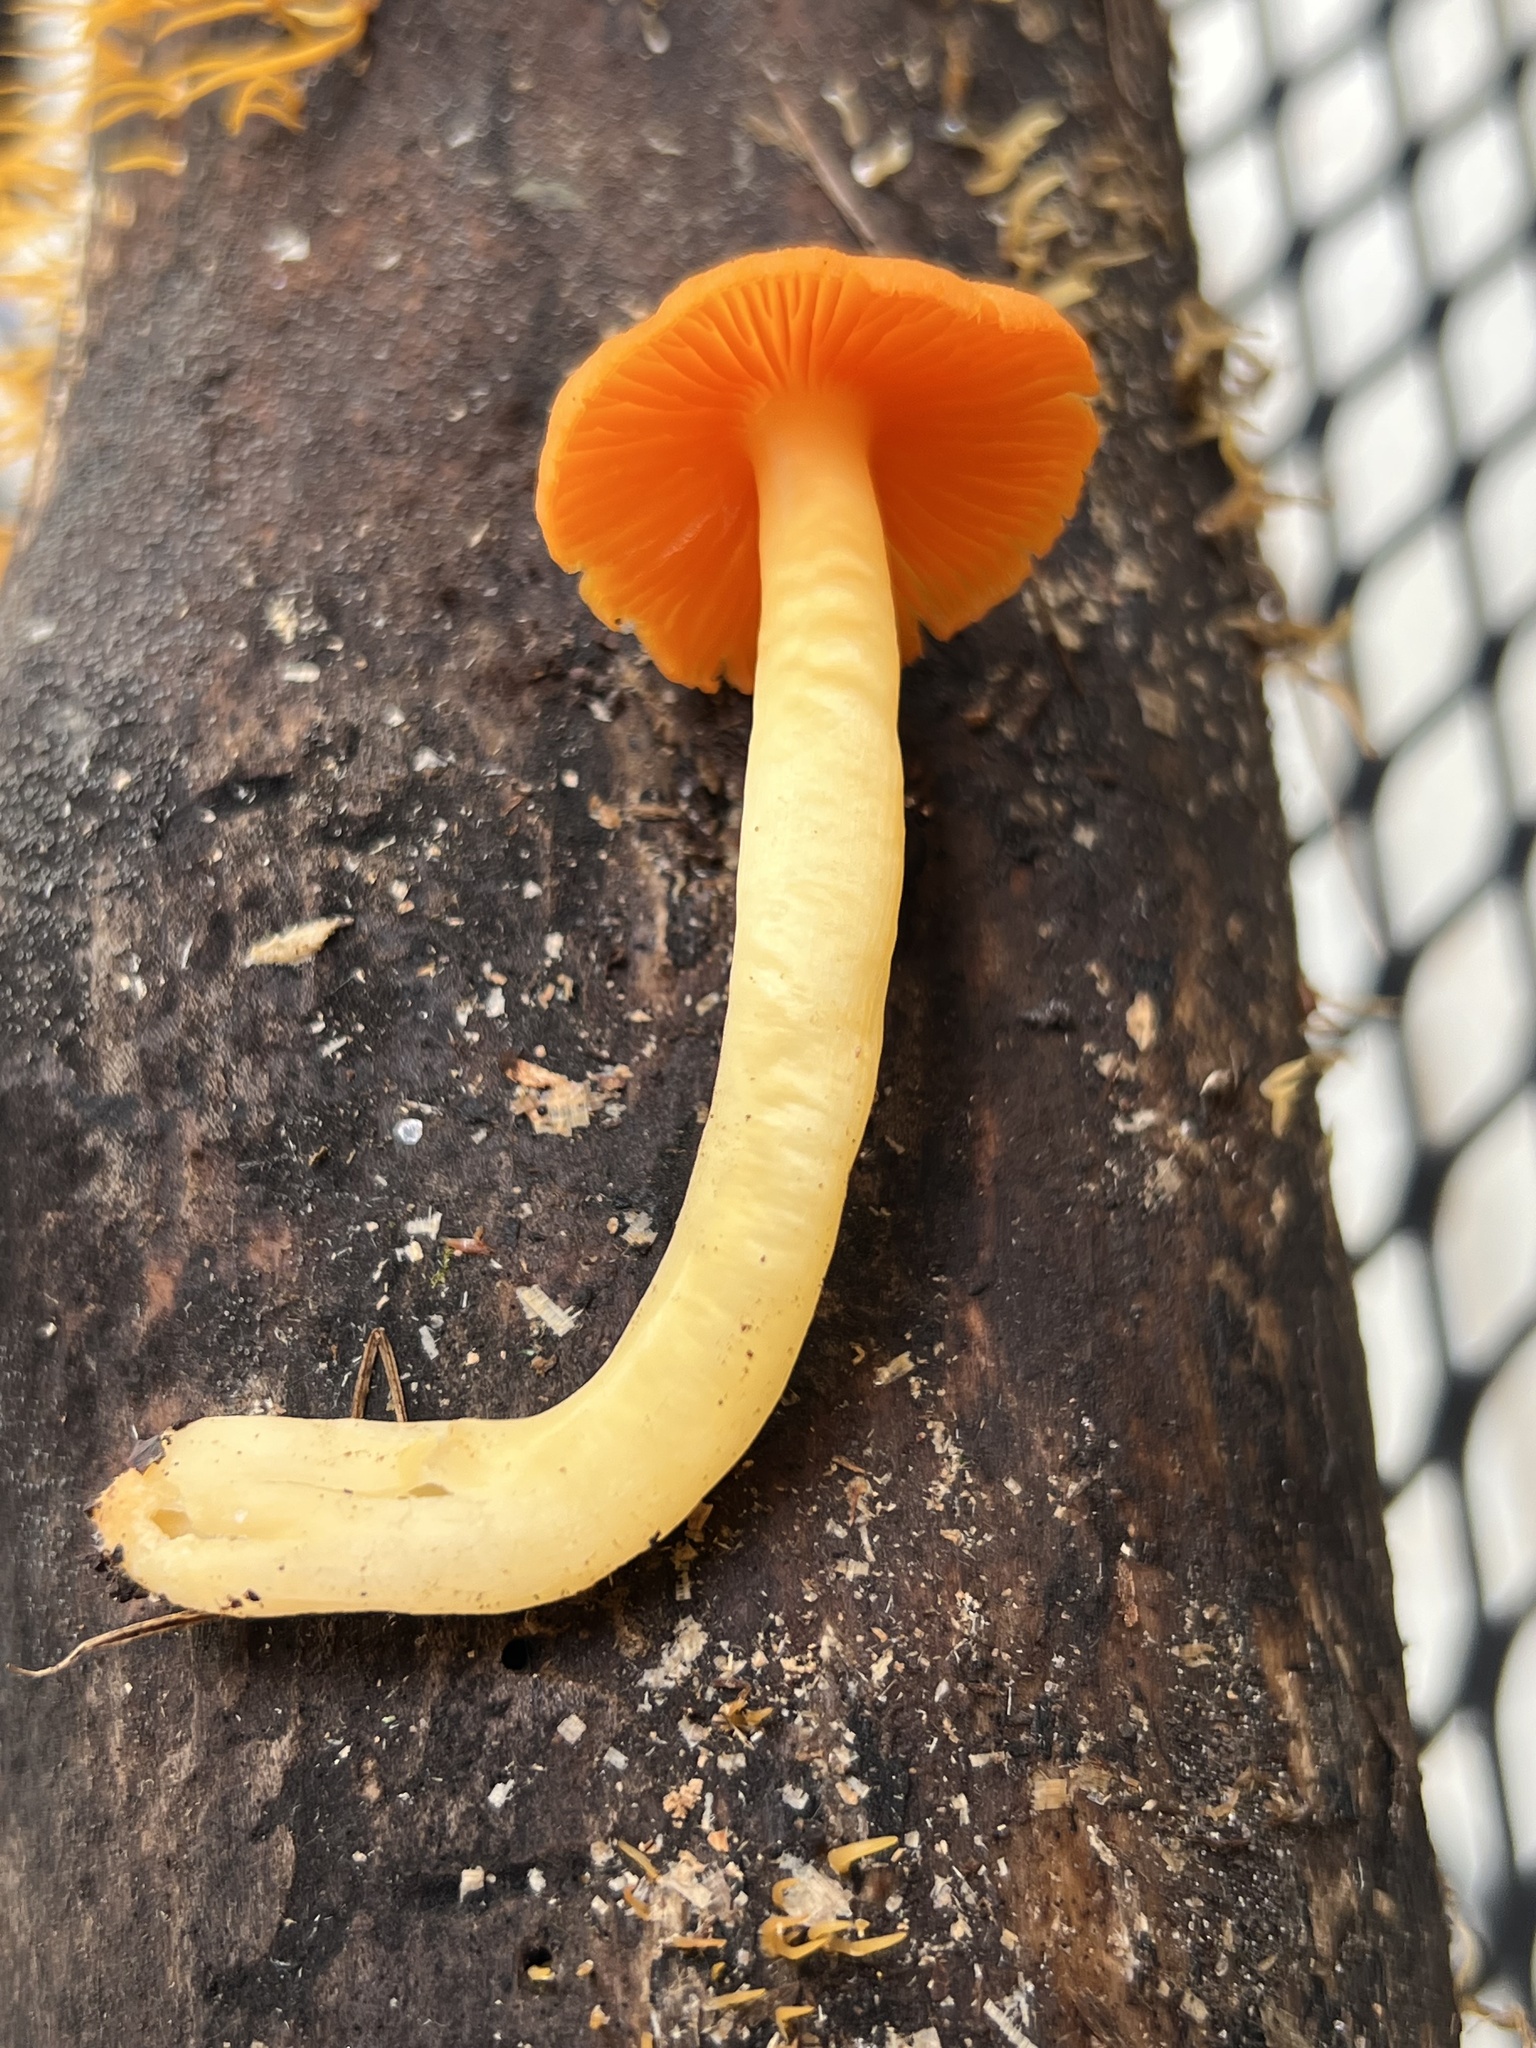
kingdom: Fungi
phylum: Basidiomycota
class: Agaricomycetes
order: Agaricales
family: Hygrophoraceae
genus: Humidicutis
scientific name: Humidicutis marginata
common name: Orange gilled waxcap
